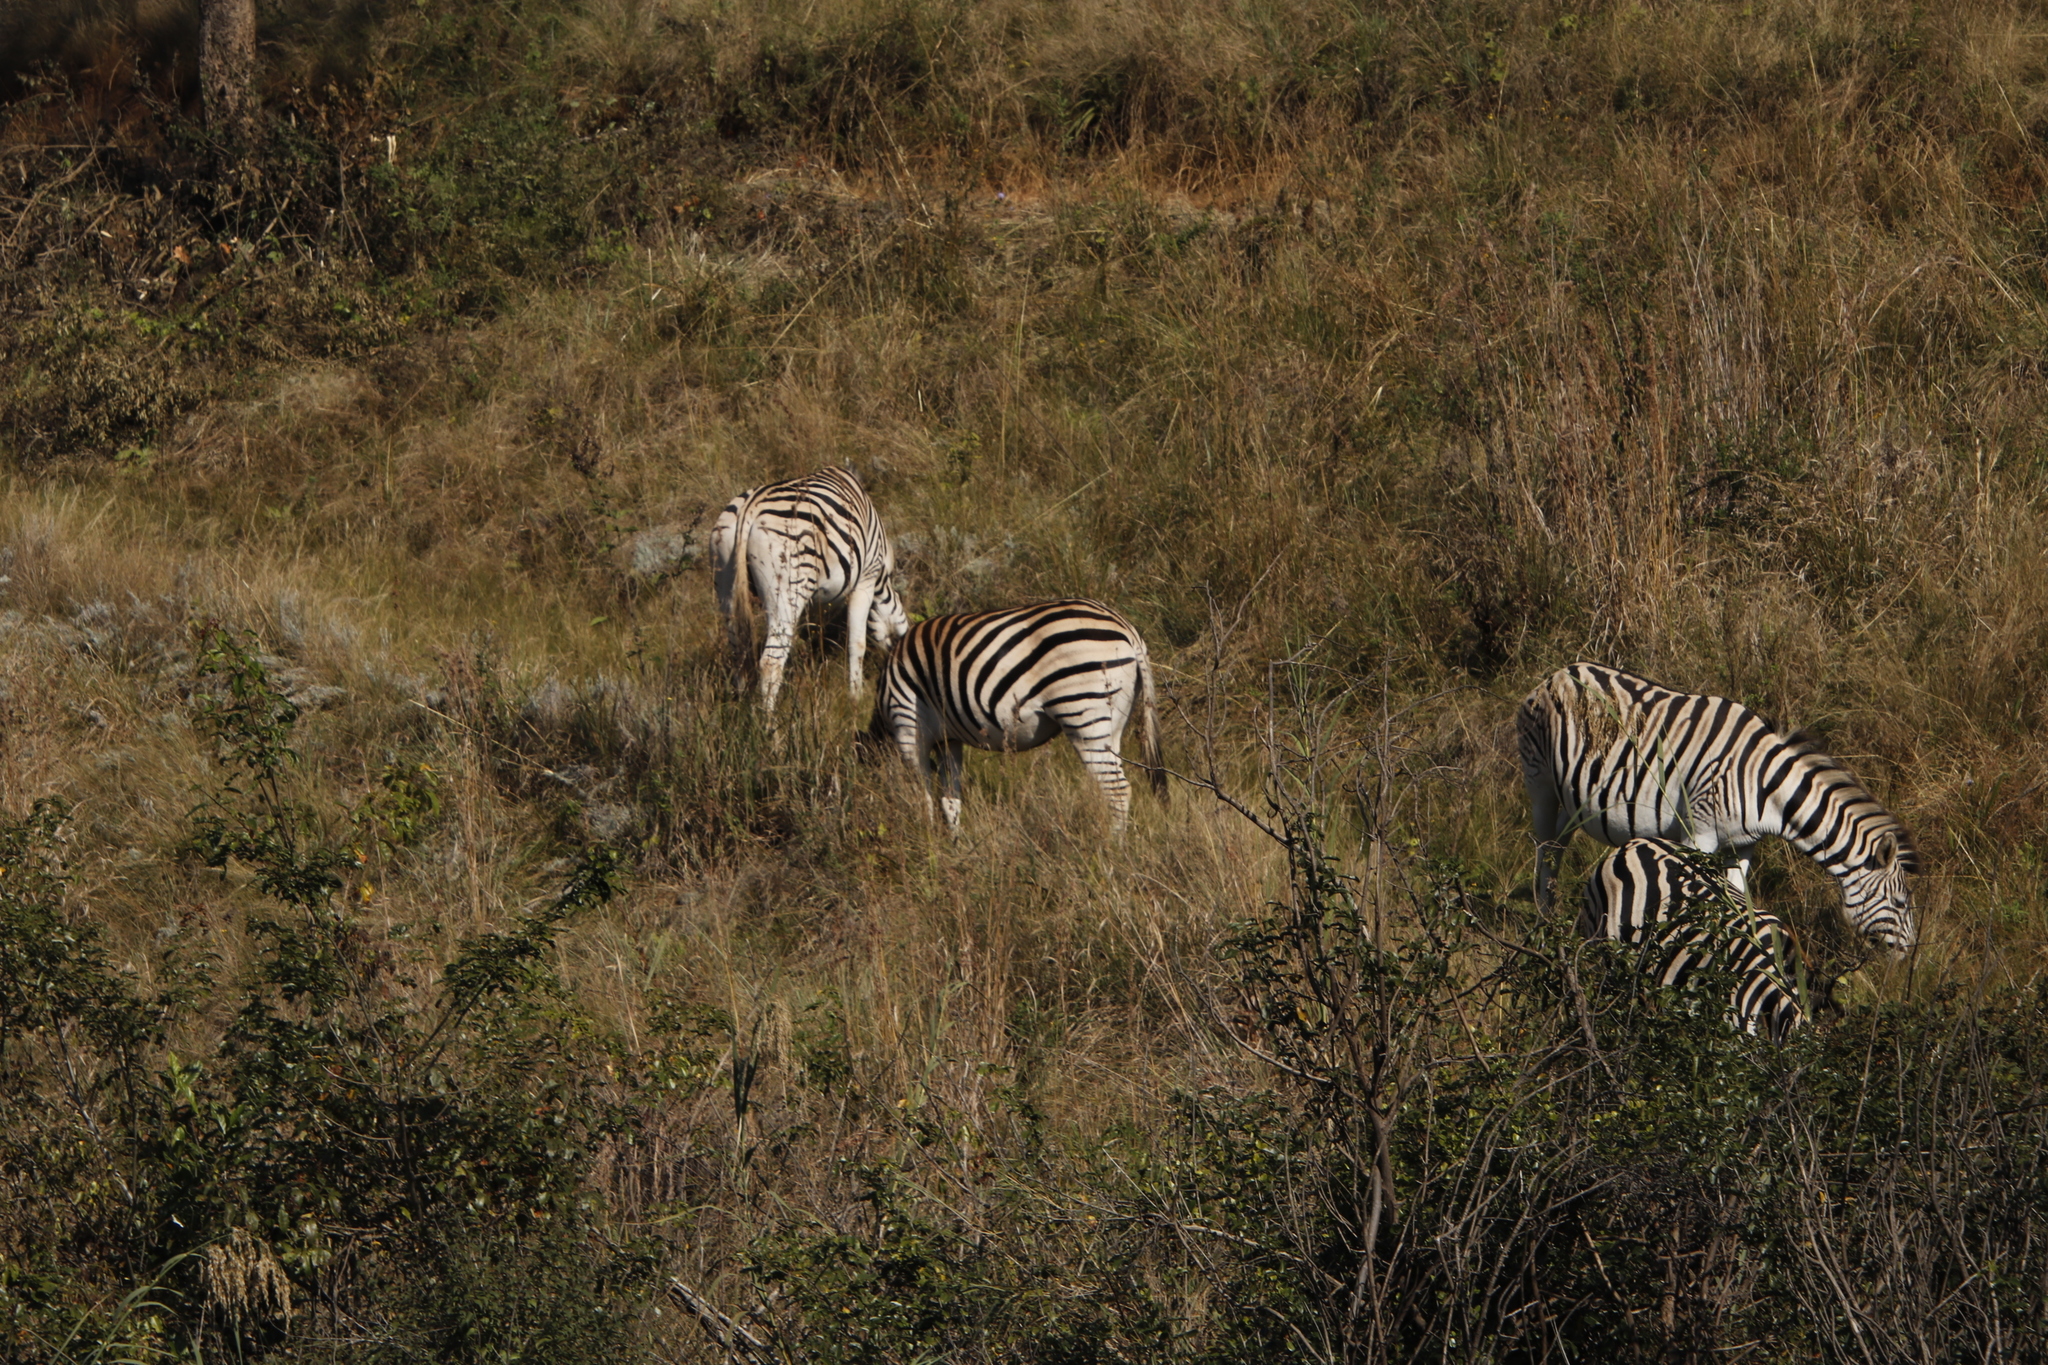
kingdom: Animalia
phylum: Chordata
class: Mammalia
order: Perissodactyla
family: Equidae
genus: Equus
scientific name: Equus quagga
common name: Plains zebra
